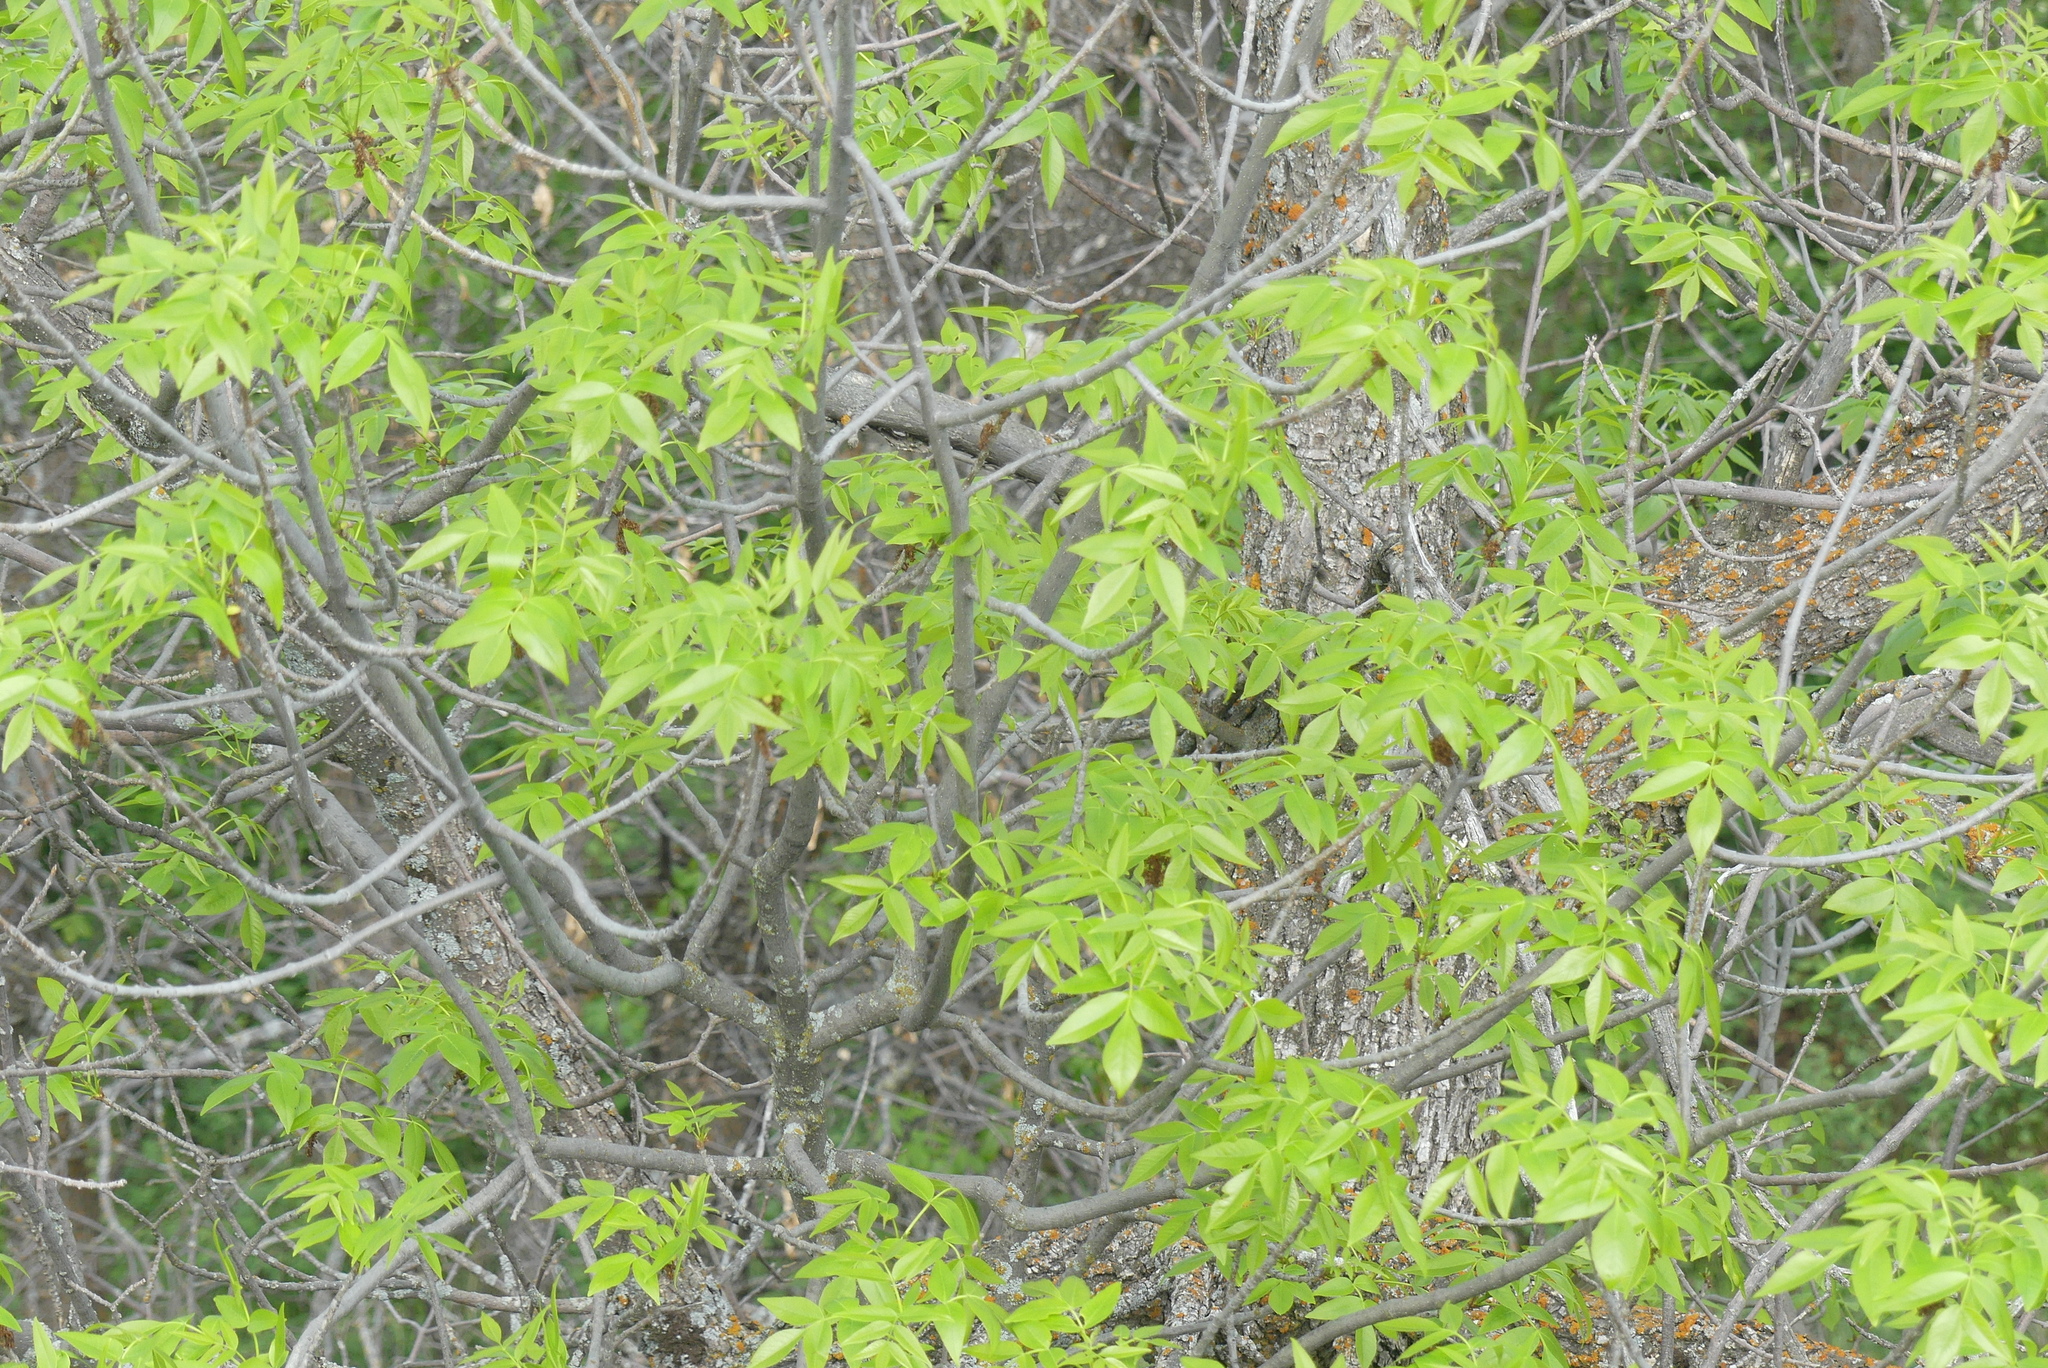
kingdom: Plantae
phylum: Tracheophyta
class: Magnoliopsida
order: Lamiales
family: Oleaceae
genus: Fraxinus
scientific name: Fraxinus pennsylvanica
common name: Green ash
